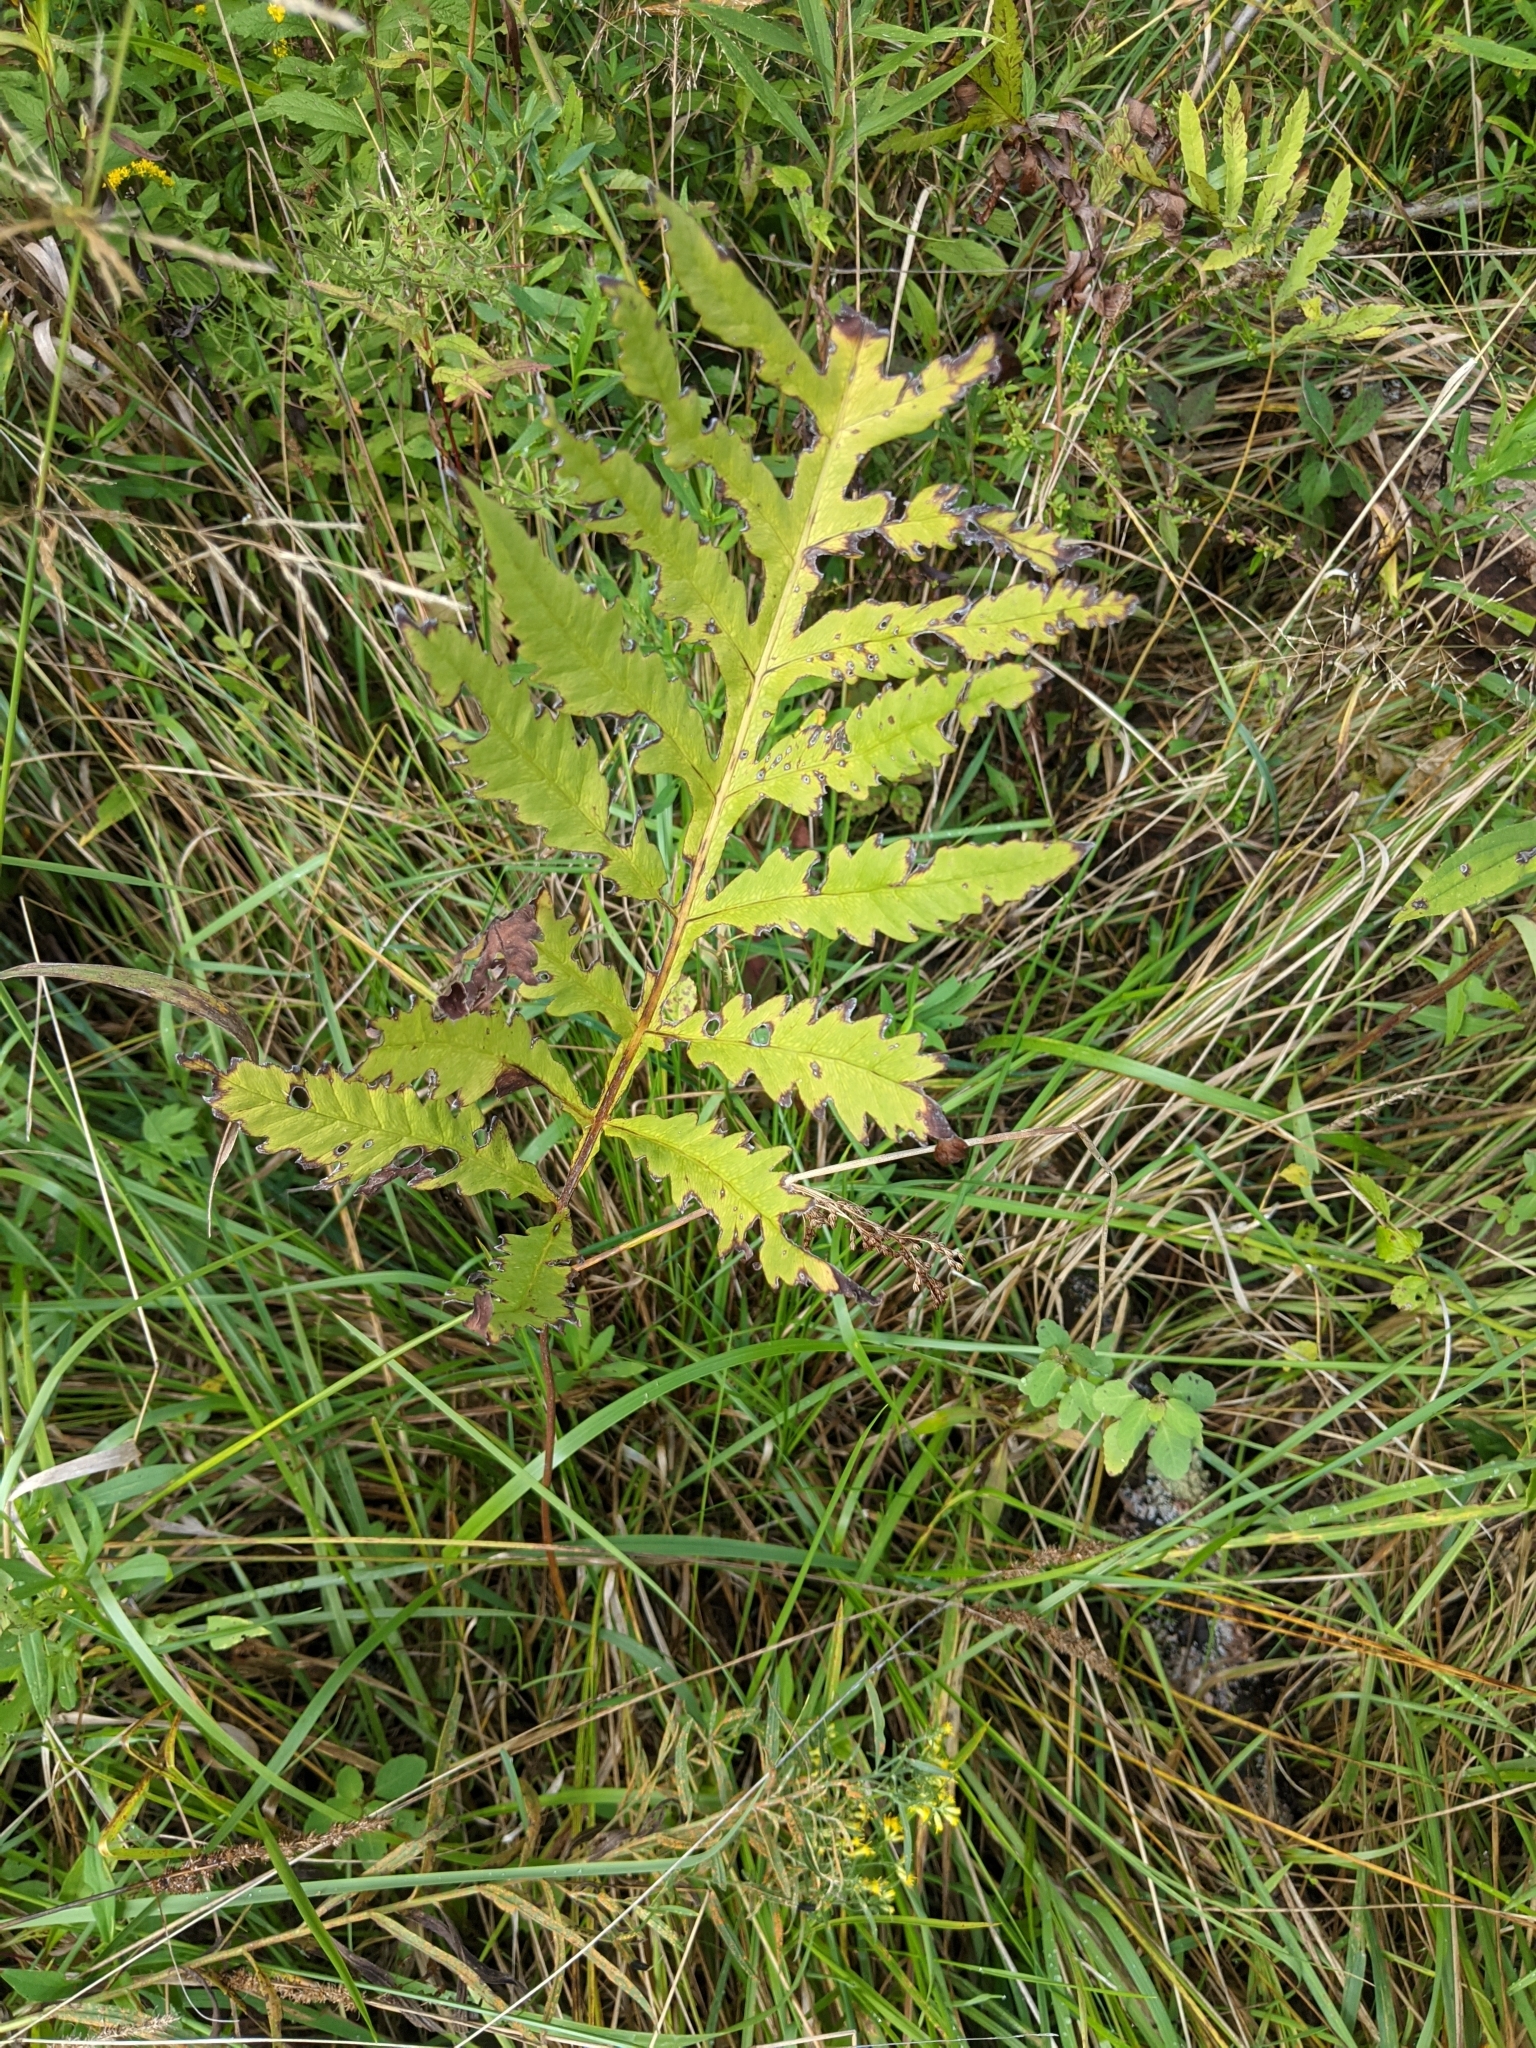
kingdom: Plantae
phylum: Tracheophyta
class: Polypodiopsida
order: Polypodiales
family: Onocleaceae
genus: Onoclea
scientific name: Onoclea sensibilis
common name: Sensitive fern
